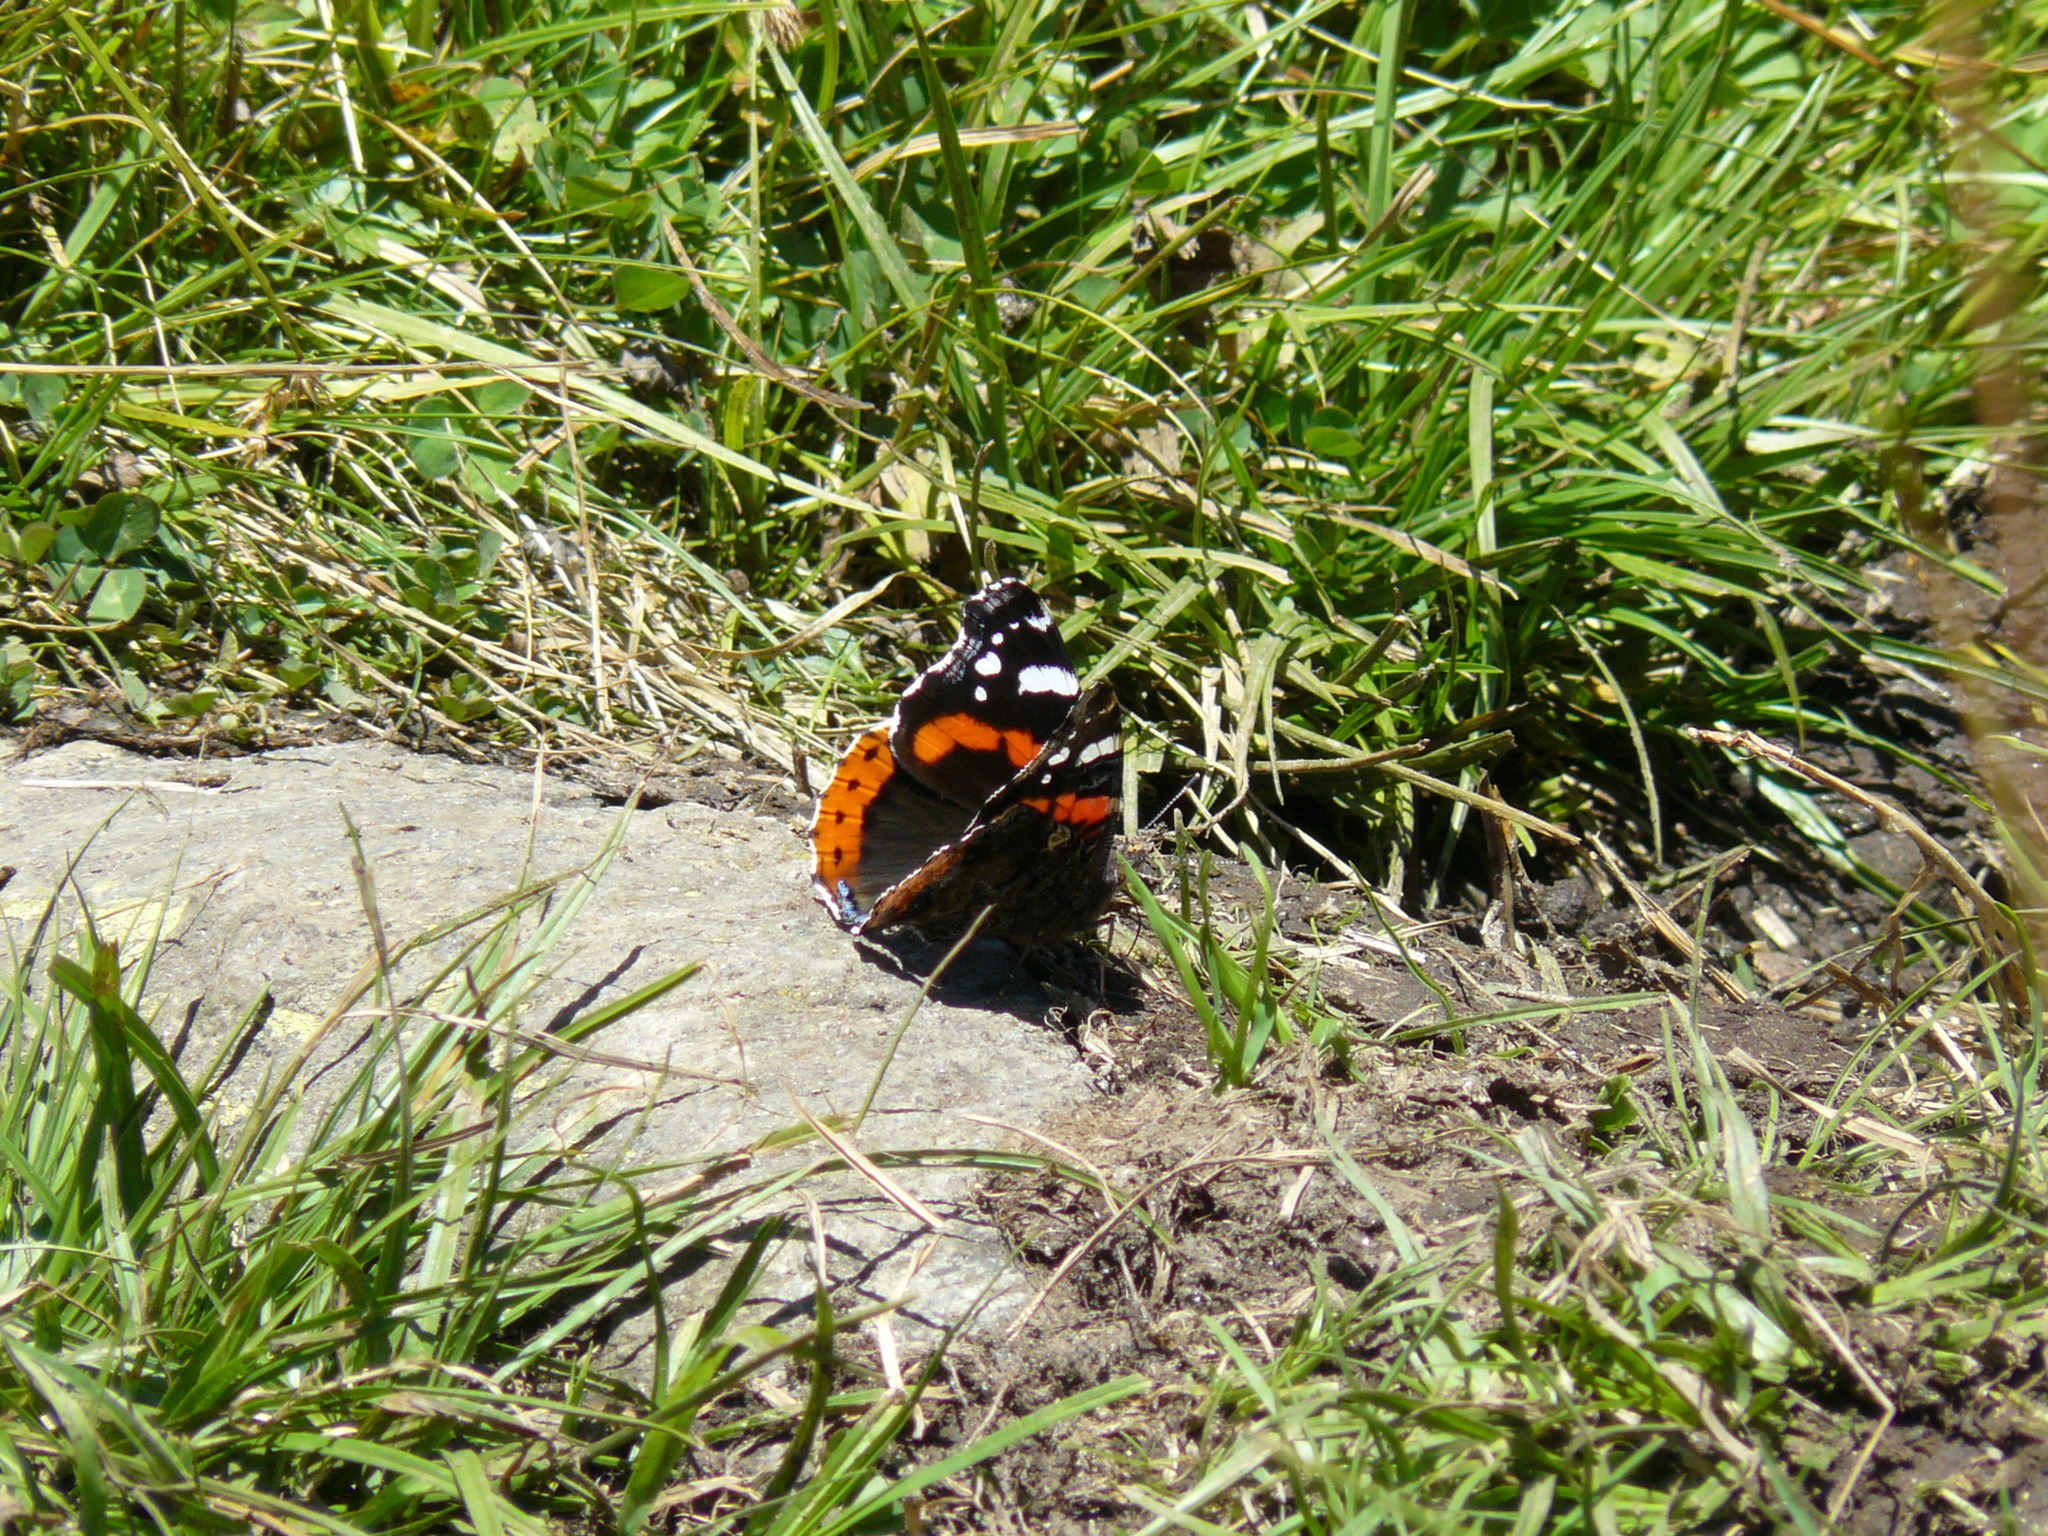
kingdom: Animalia
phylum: Arthropoda
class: Insecta
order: Lepidoptera
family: Nymphalidae
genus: Vanessa
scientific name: Vanessa atalanta
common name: Red admiral
